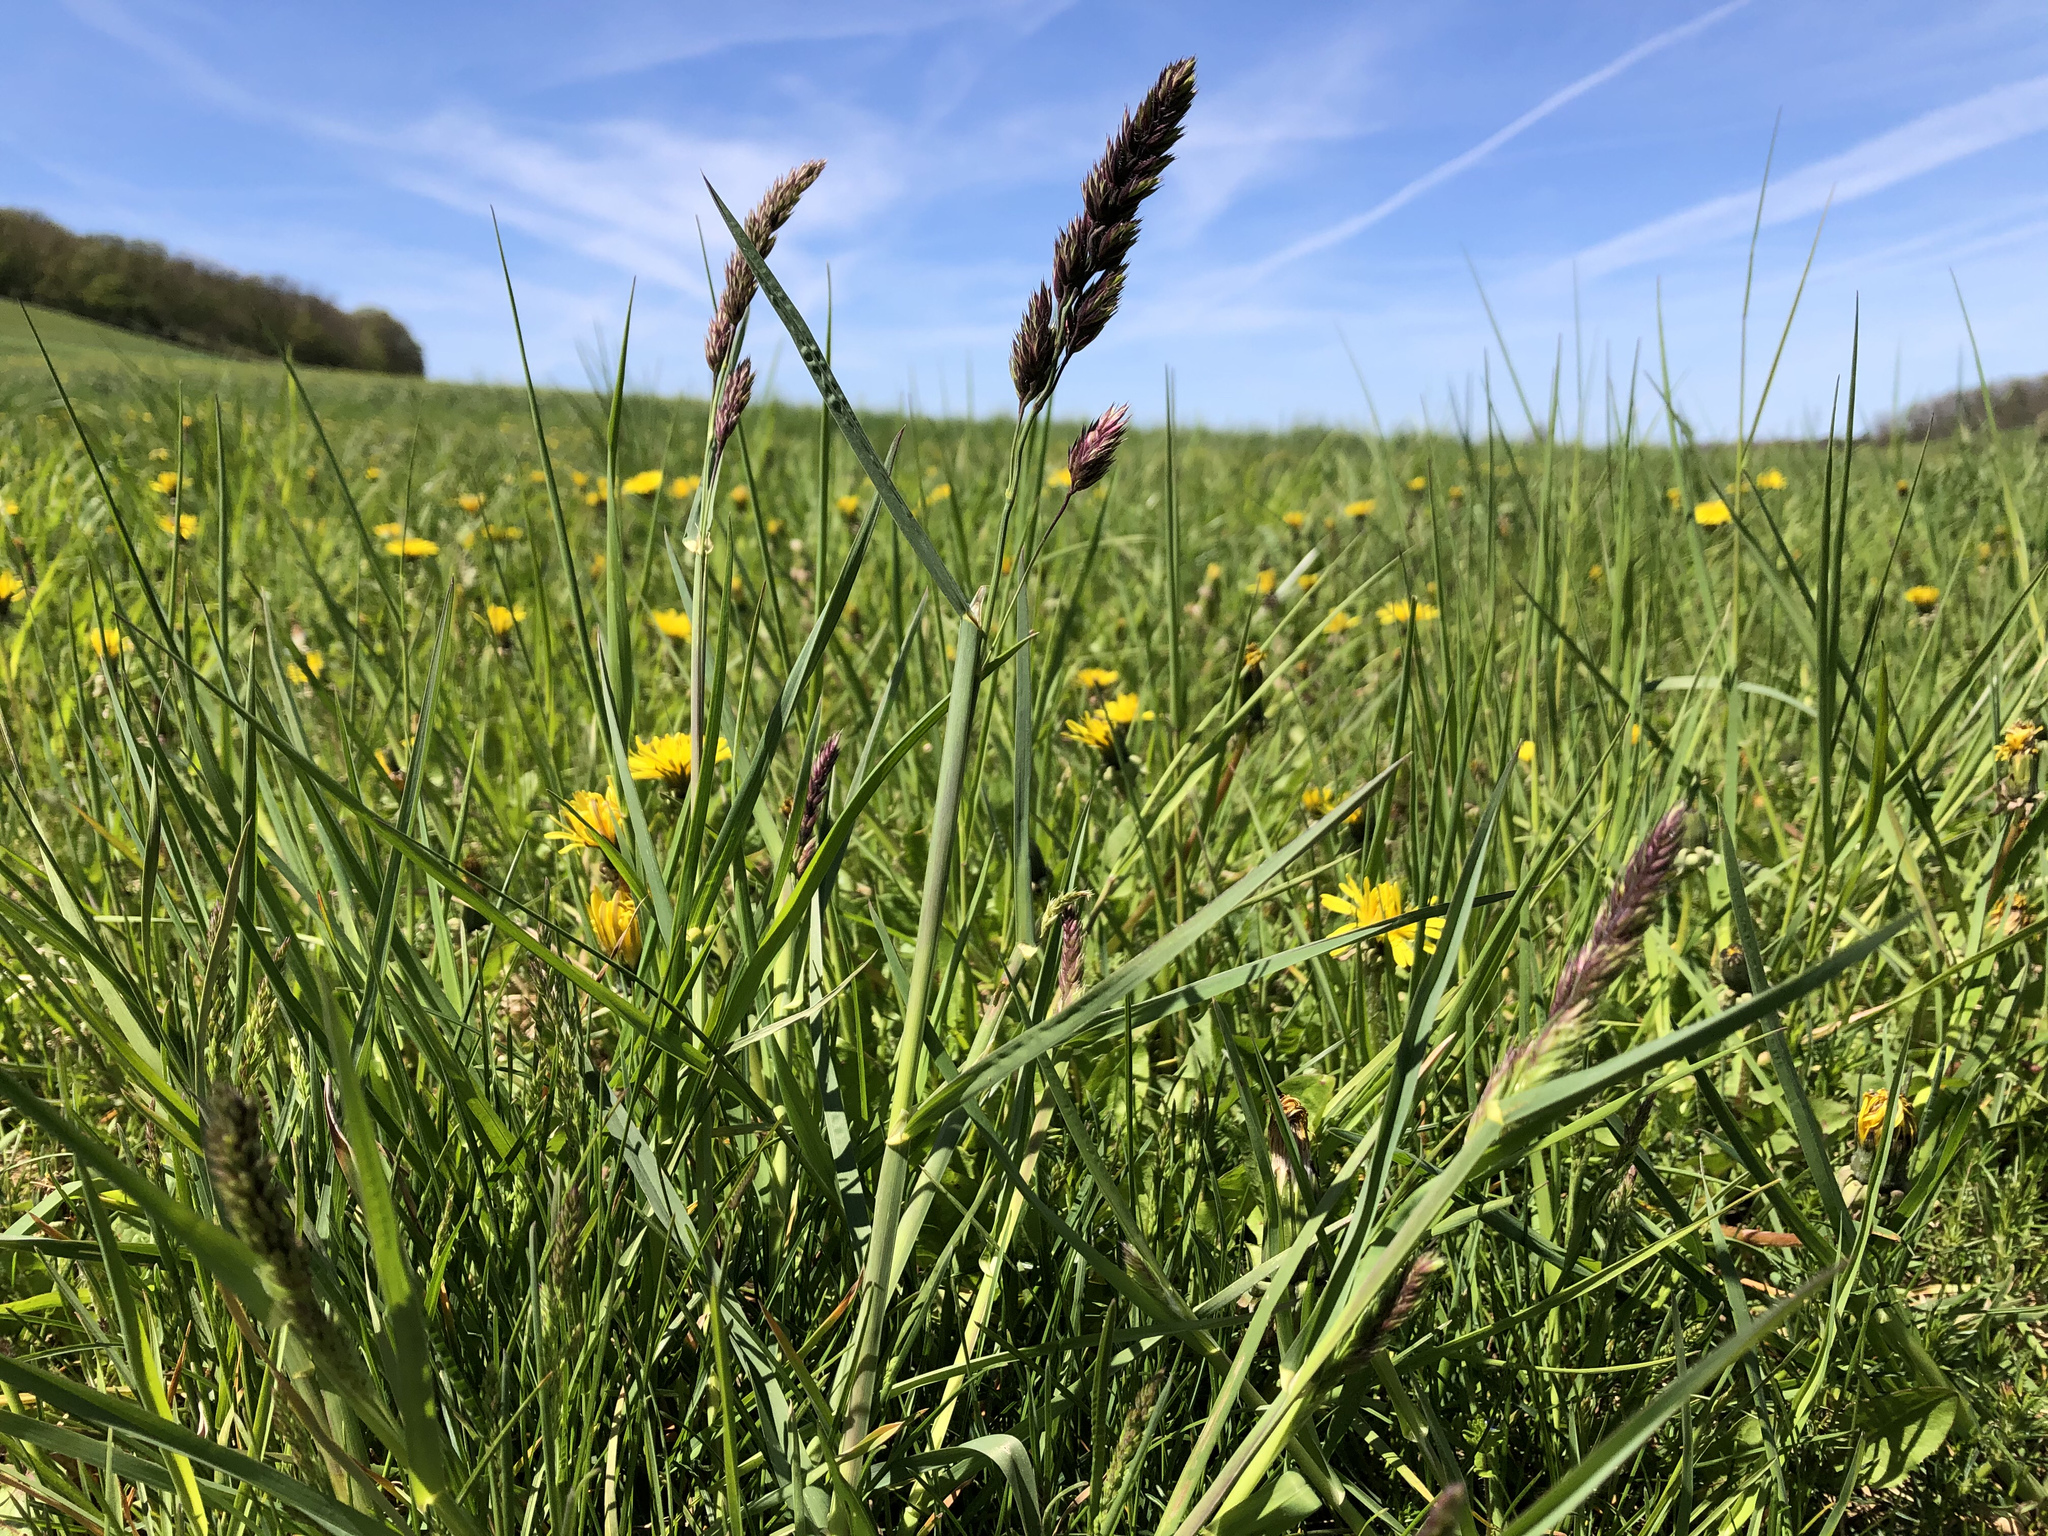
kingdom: Plantae
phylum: Tracheophyta
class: Liliopsida
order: Poales
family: Poaceae
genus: Dactylis
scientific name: Dactylis glomerata
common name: Orchardgrass
